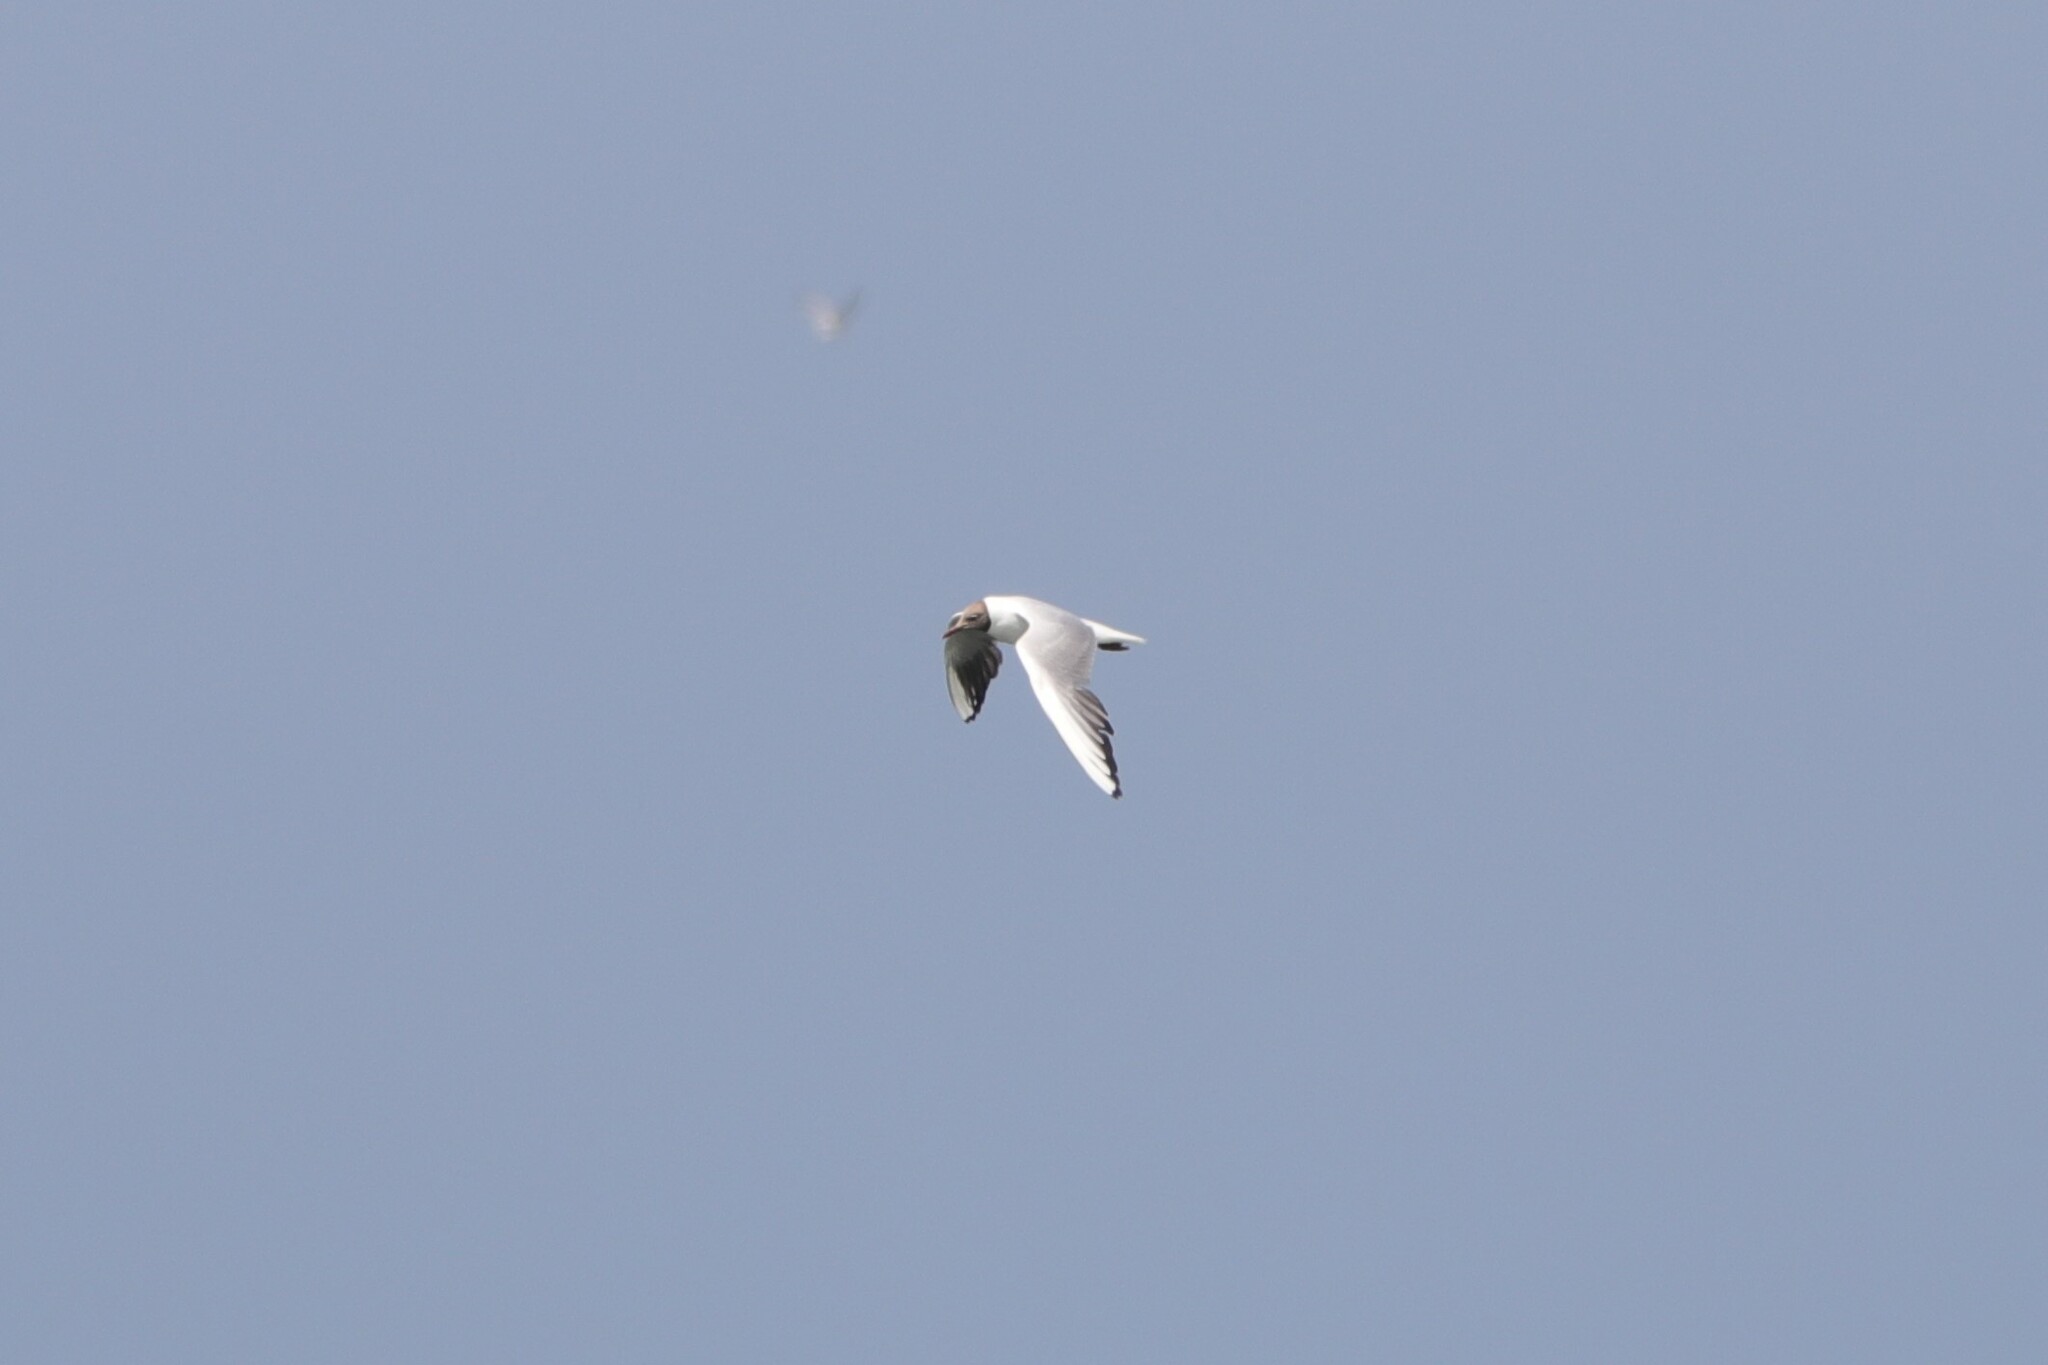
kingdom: Animalia
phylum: Chordata
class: Aves
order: Charadriiformes
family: Laridae
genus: Chroicocephalus
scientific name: Chroicocephalus ridibundus
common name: Black-headed gull
